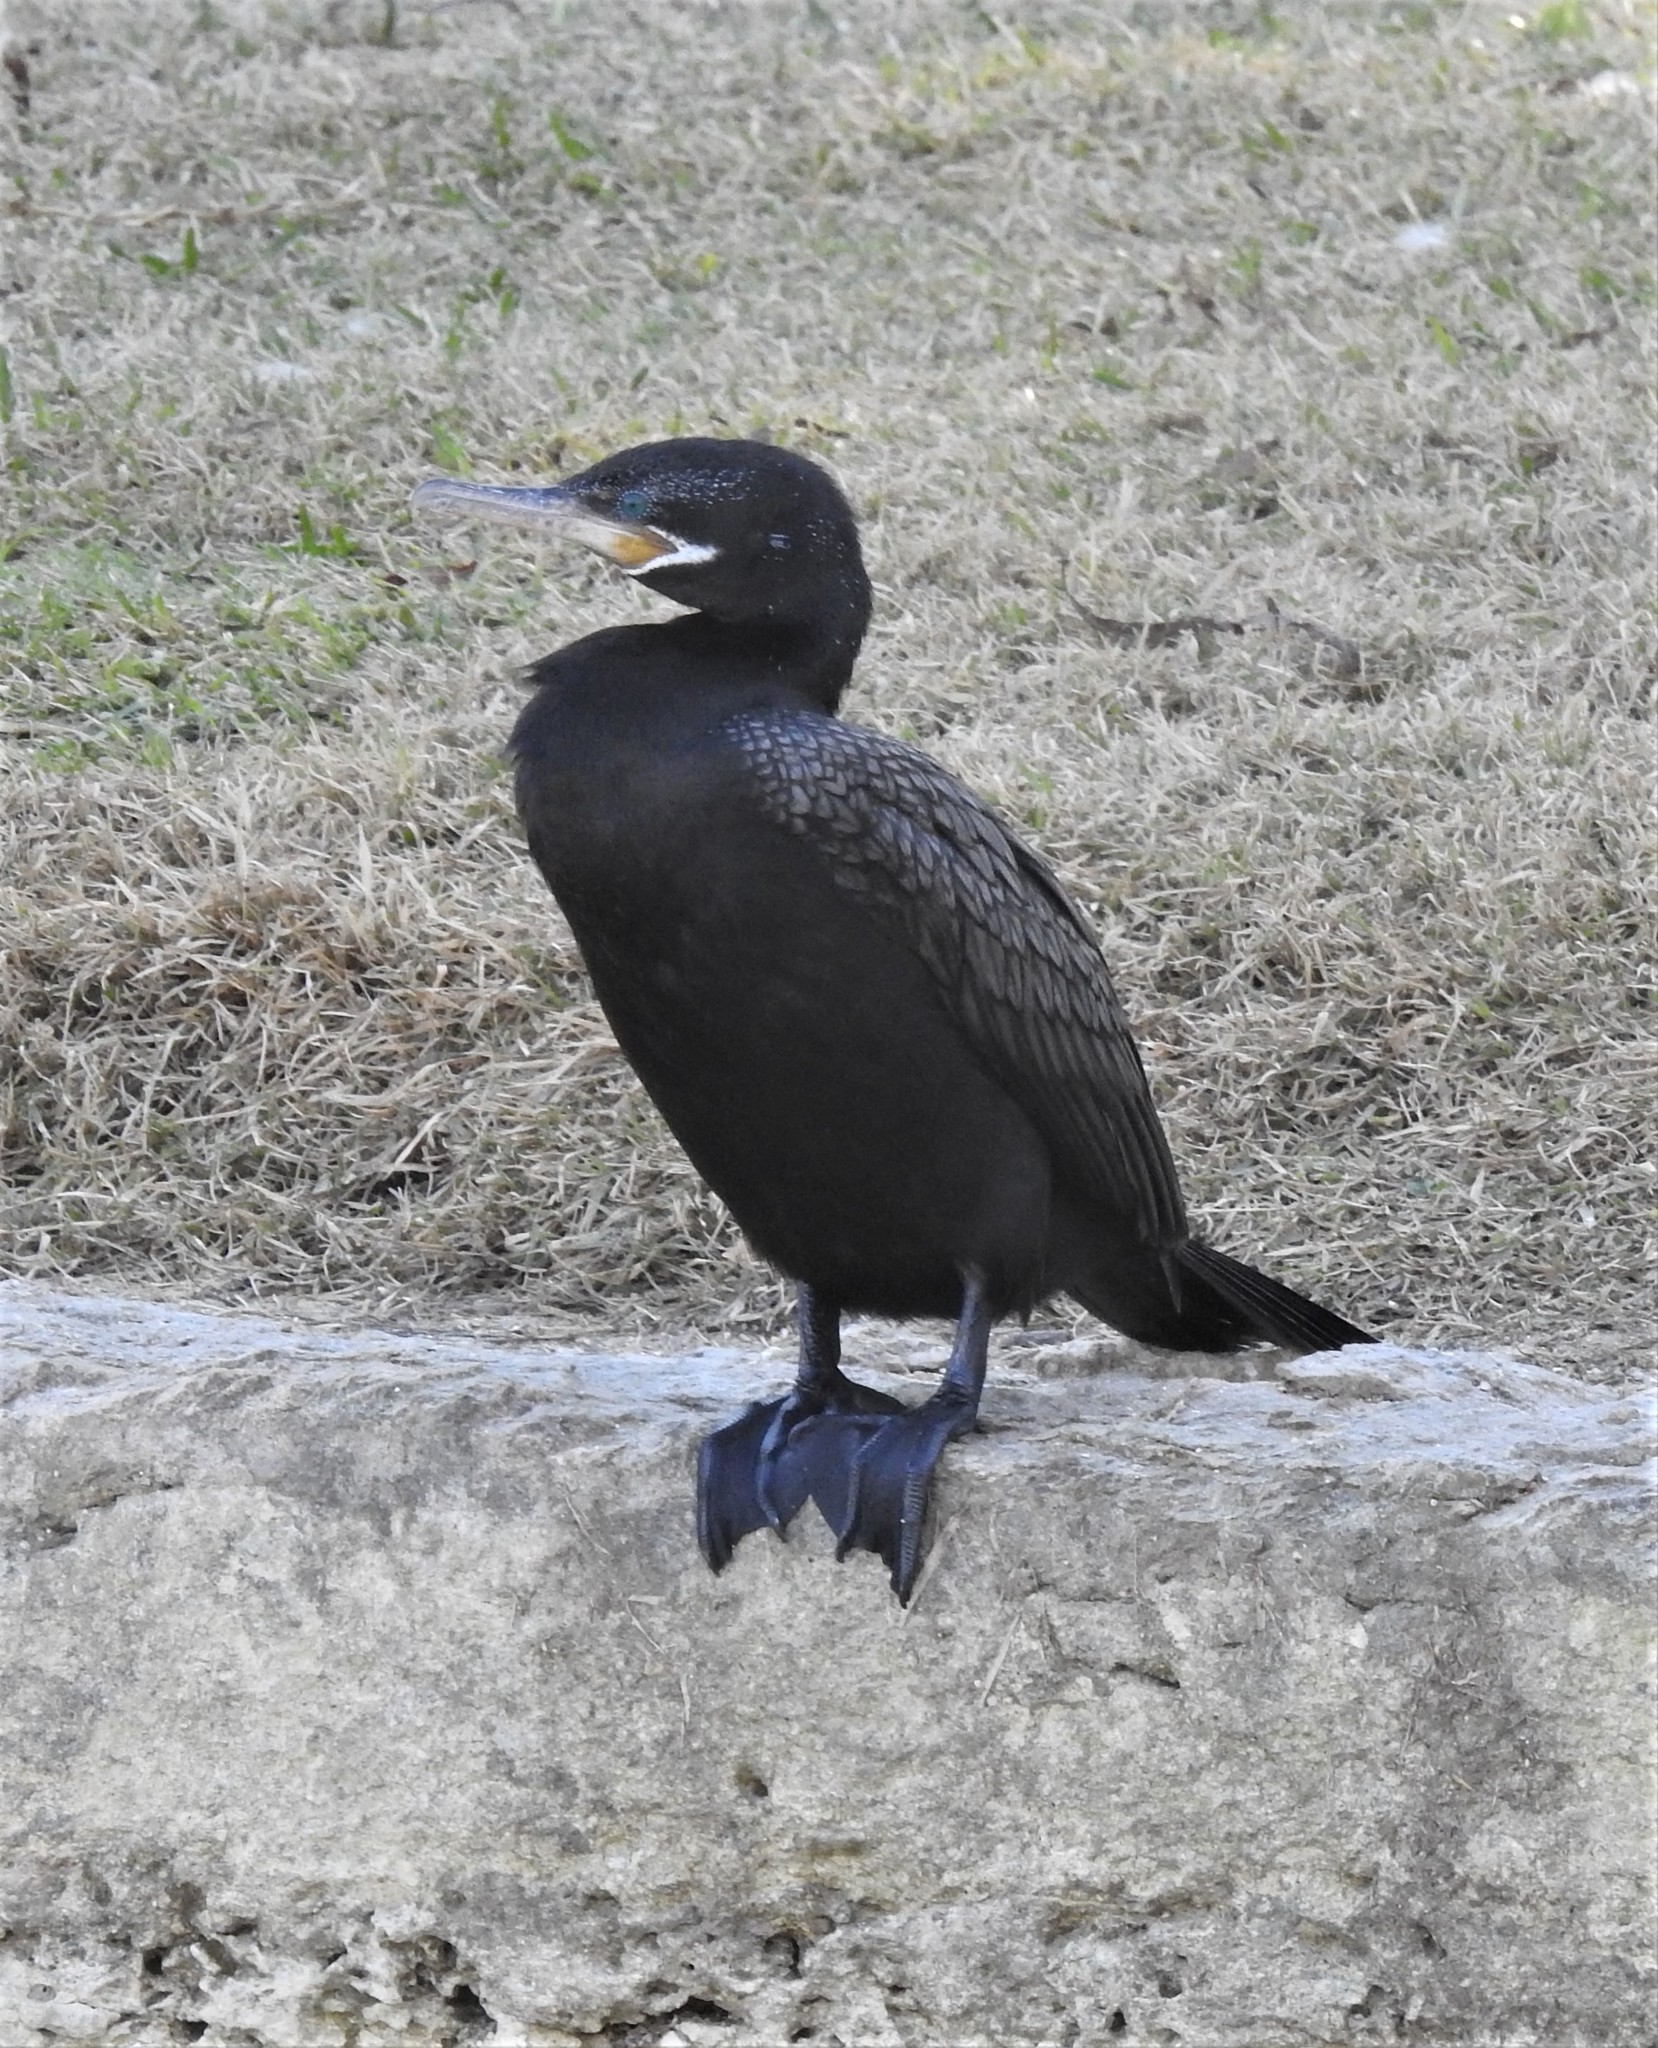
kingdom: Animalia
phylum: Chordata
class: Aves
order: Suliformes
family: Phalacrocoracidae
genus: Phalacrocorax
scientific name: Phalacrocorax brasilianus
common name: Neotropic cormorant
